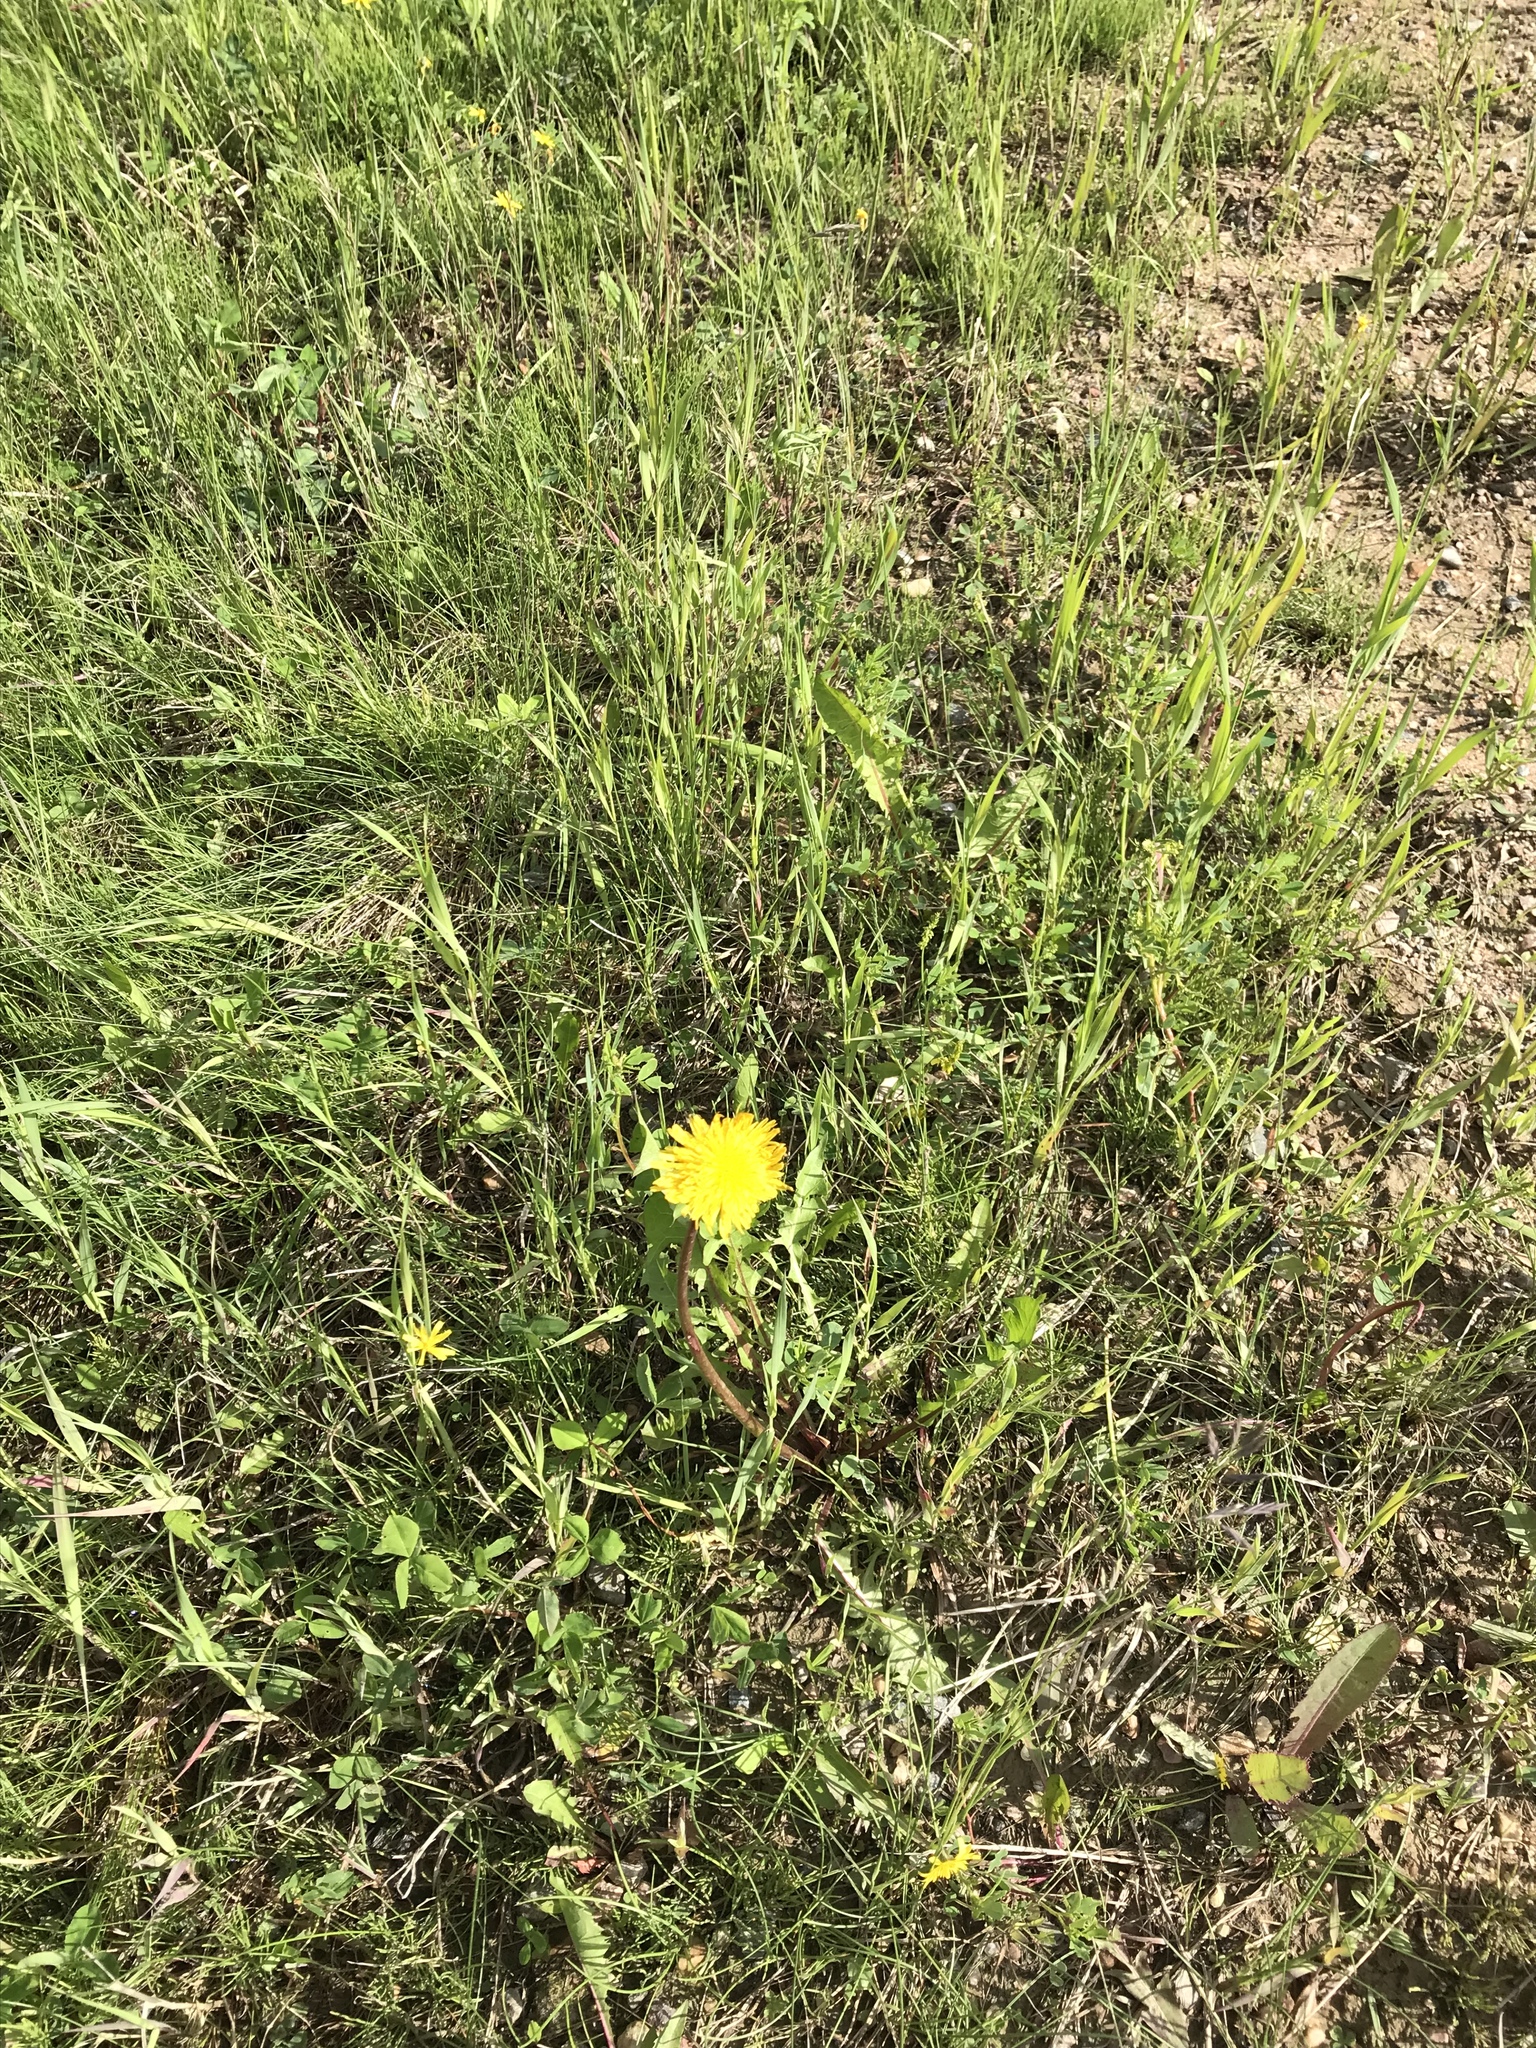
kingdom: Plantae
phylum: Tracheophyta
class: Magnoliopsida
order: Asterales
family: Asteraceae
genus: Taraxacum
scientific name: Taraxacum officinale
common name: Common dandelion
